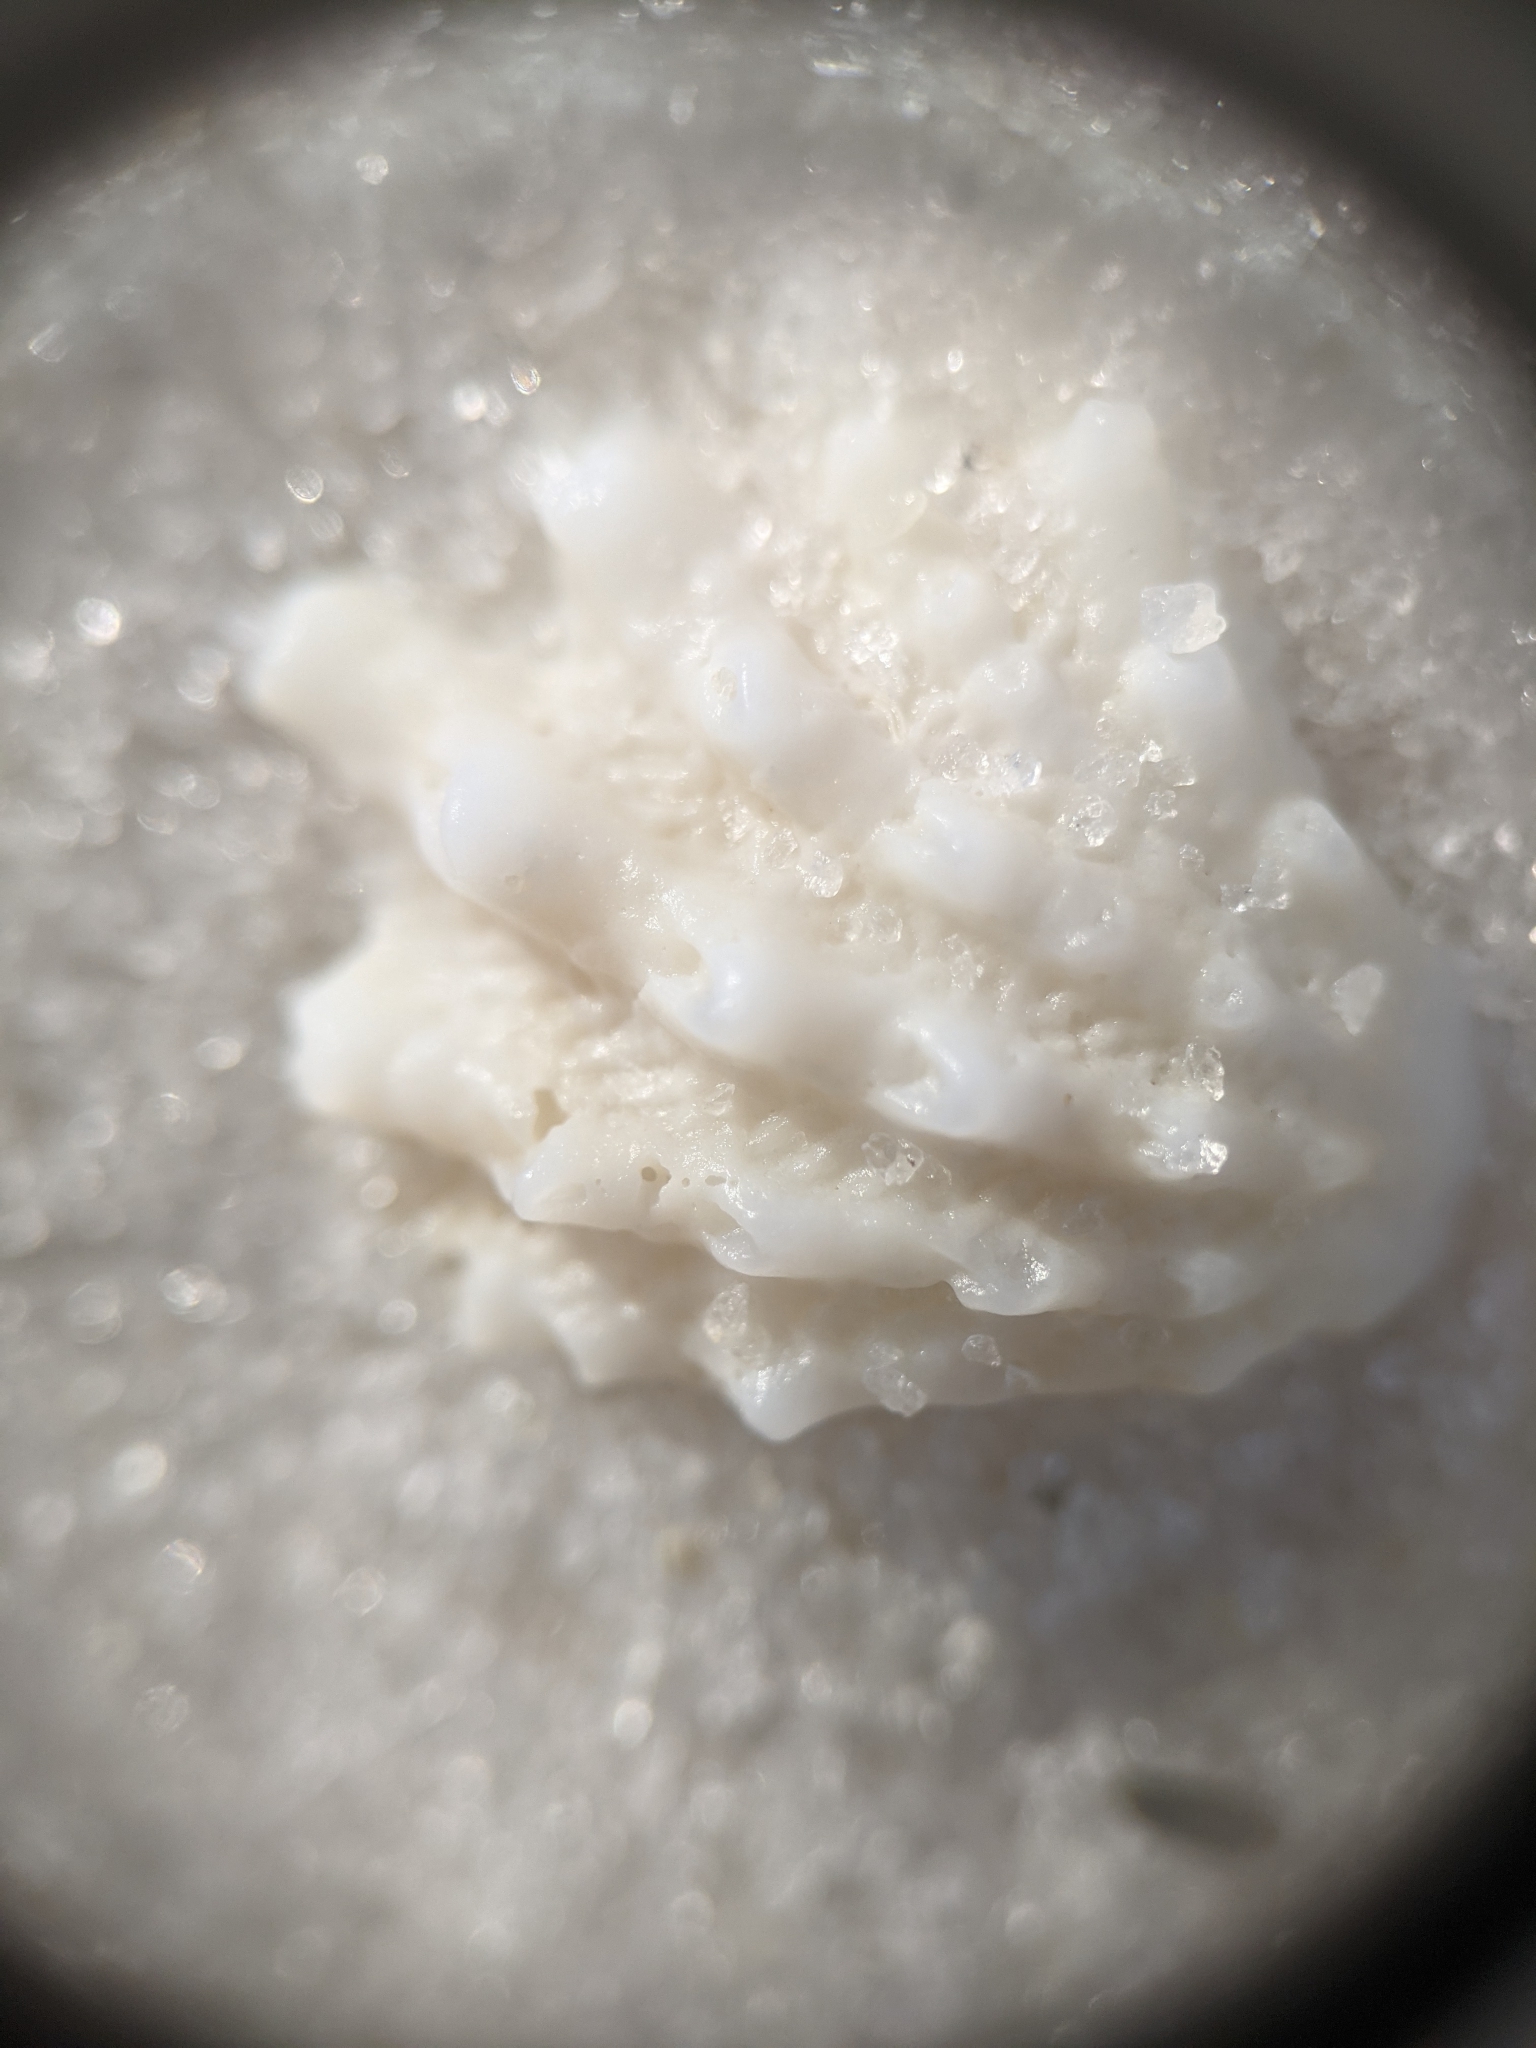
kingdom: Animalia
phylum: Mollusca
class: Bivalvia
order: Venerida
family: Chamidae
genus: Arcinella
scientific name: Arcinella cornuta
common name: Florida spiny jewel box
